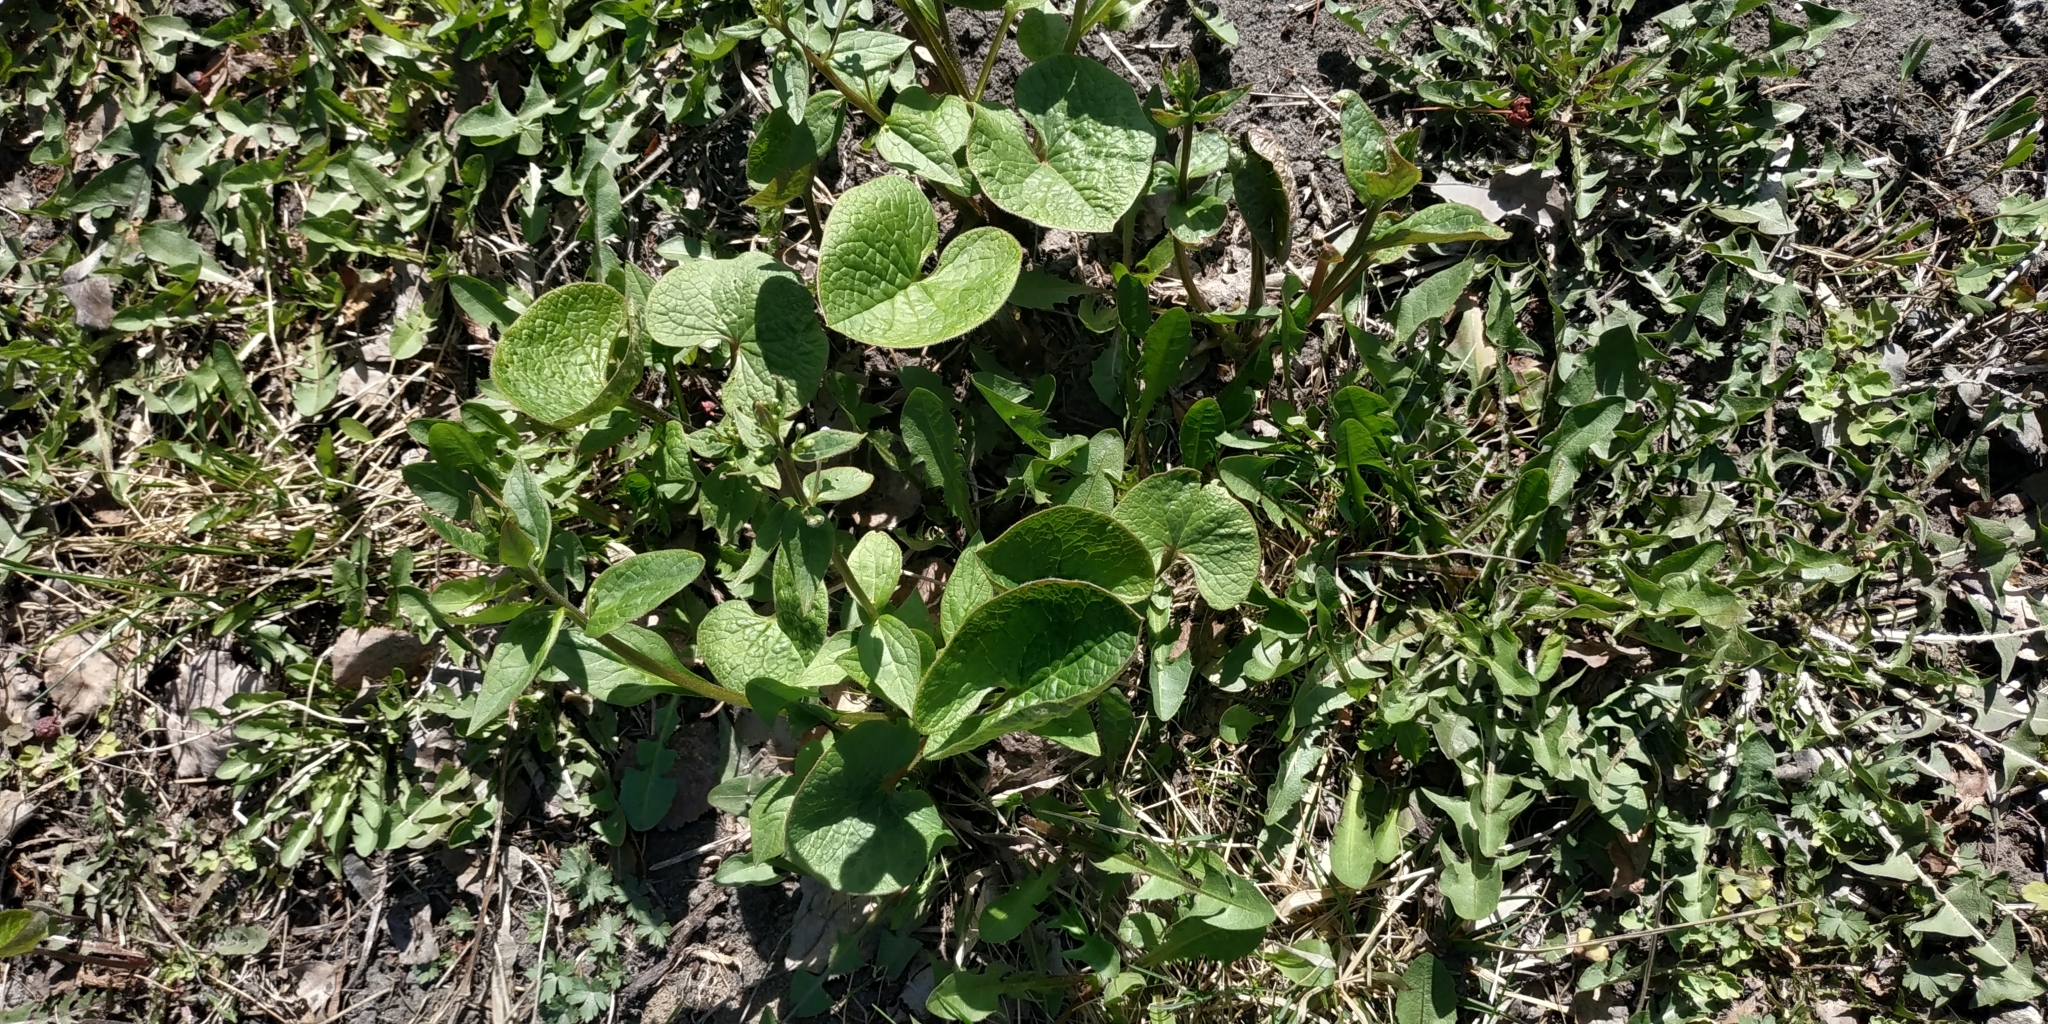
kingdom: Plantae
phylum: Tracheophyta
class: Magnoliopsida
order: Boraginales
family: Boraginaceae
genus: Brunnera
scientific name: Brunnera sibirica
